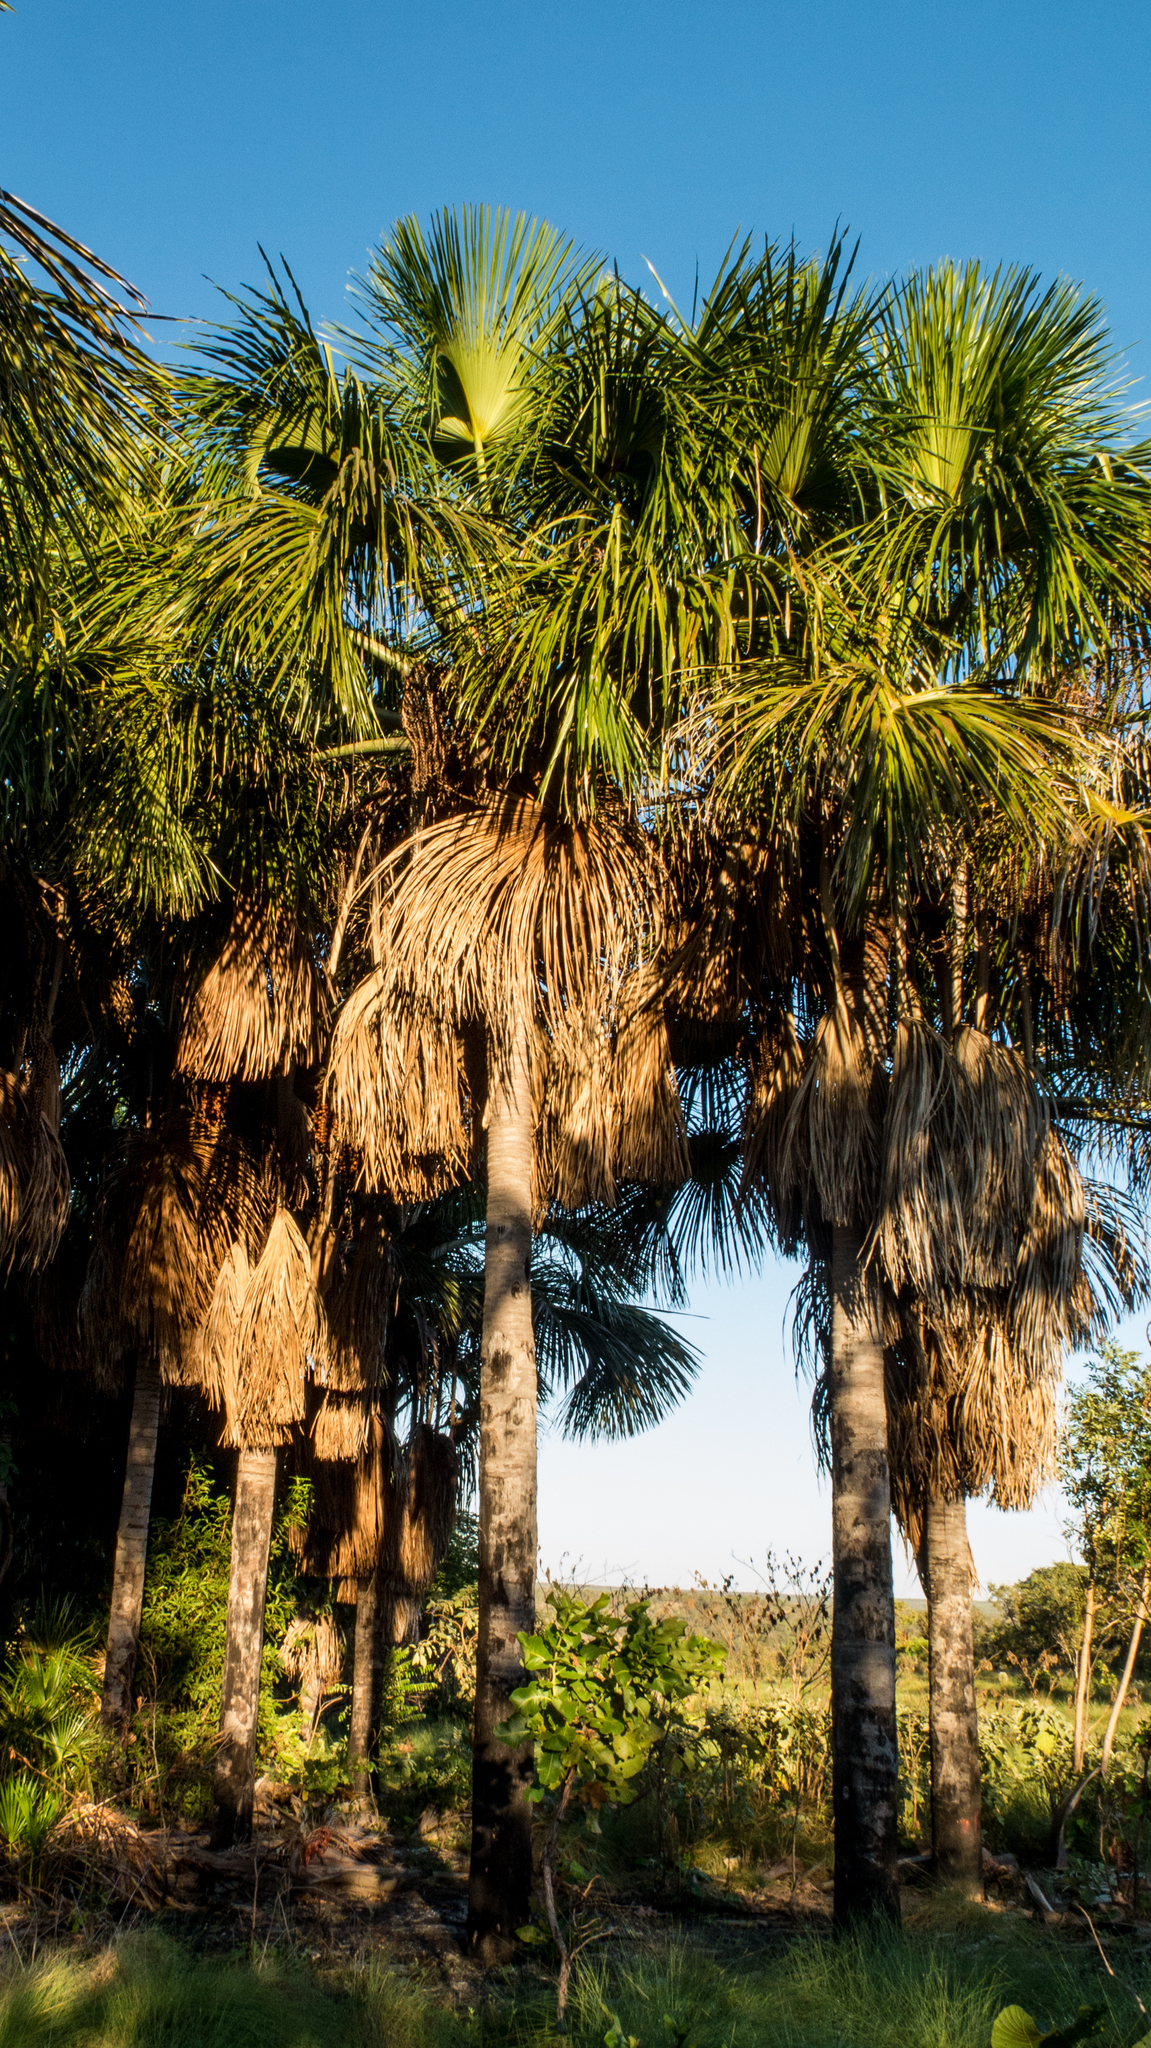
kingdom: Plantae
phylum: Tracheophyta
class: Liliopsida
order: Arecales
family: Arecaceae
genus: Mauritia
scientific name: Mauritia flexuosa
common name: Tree-of-life
